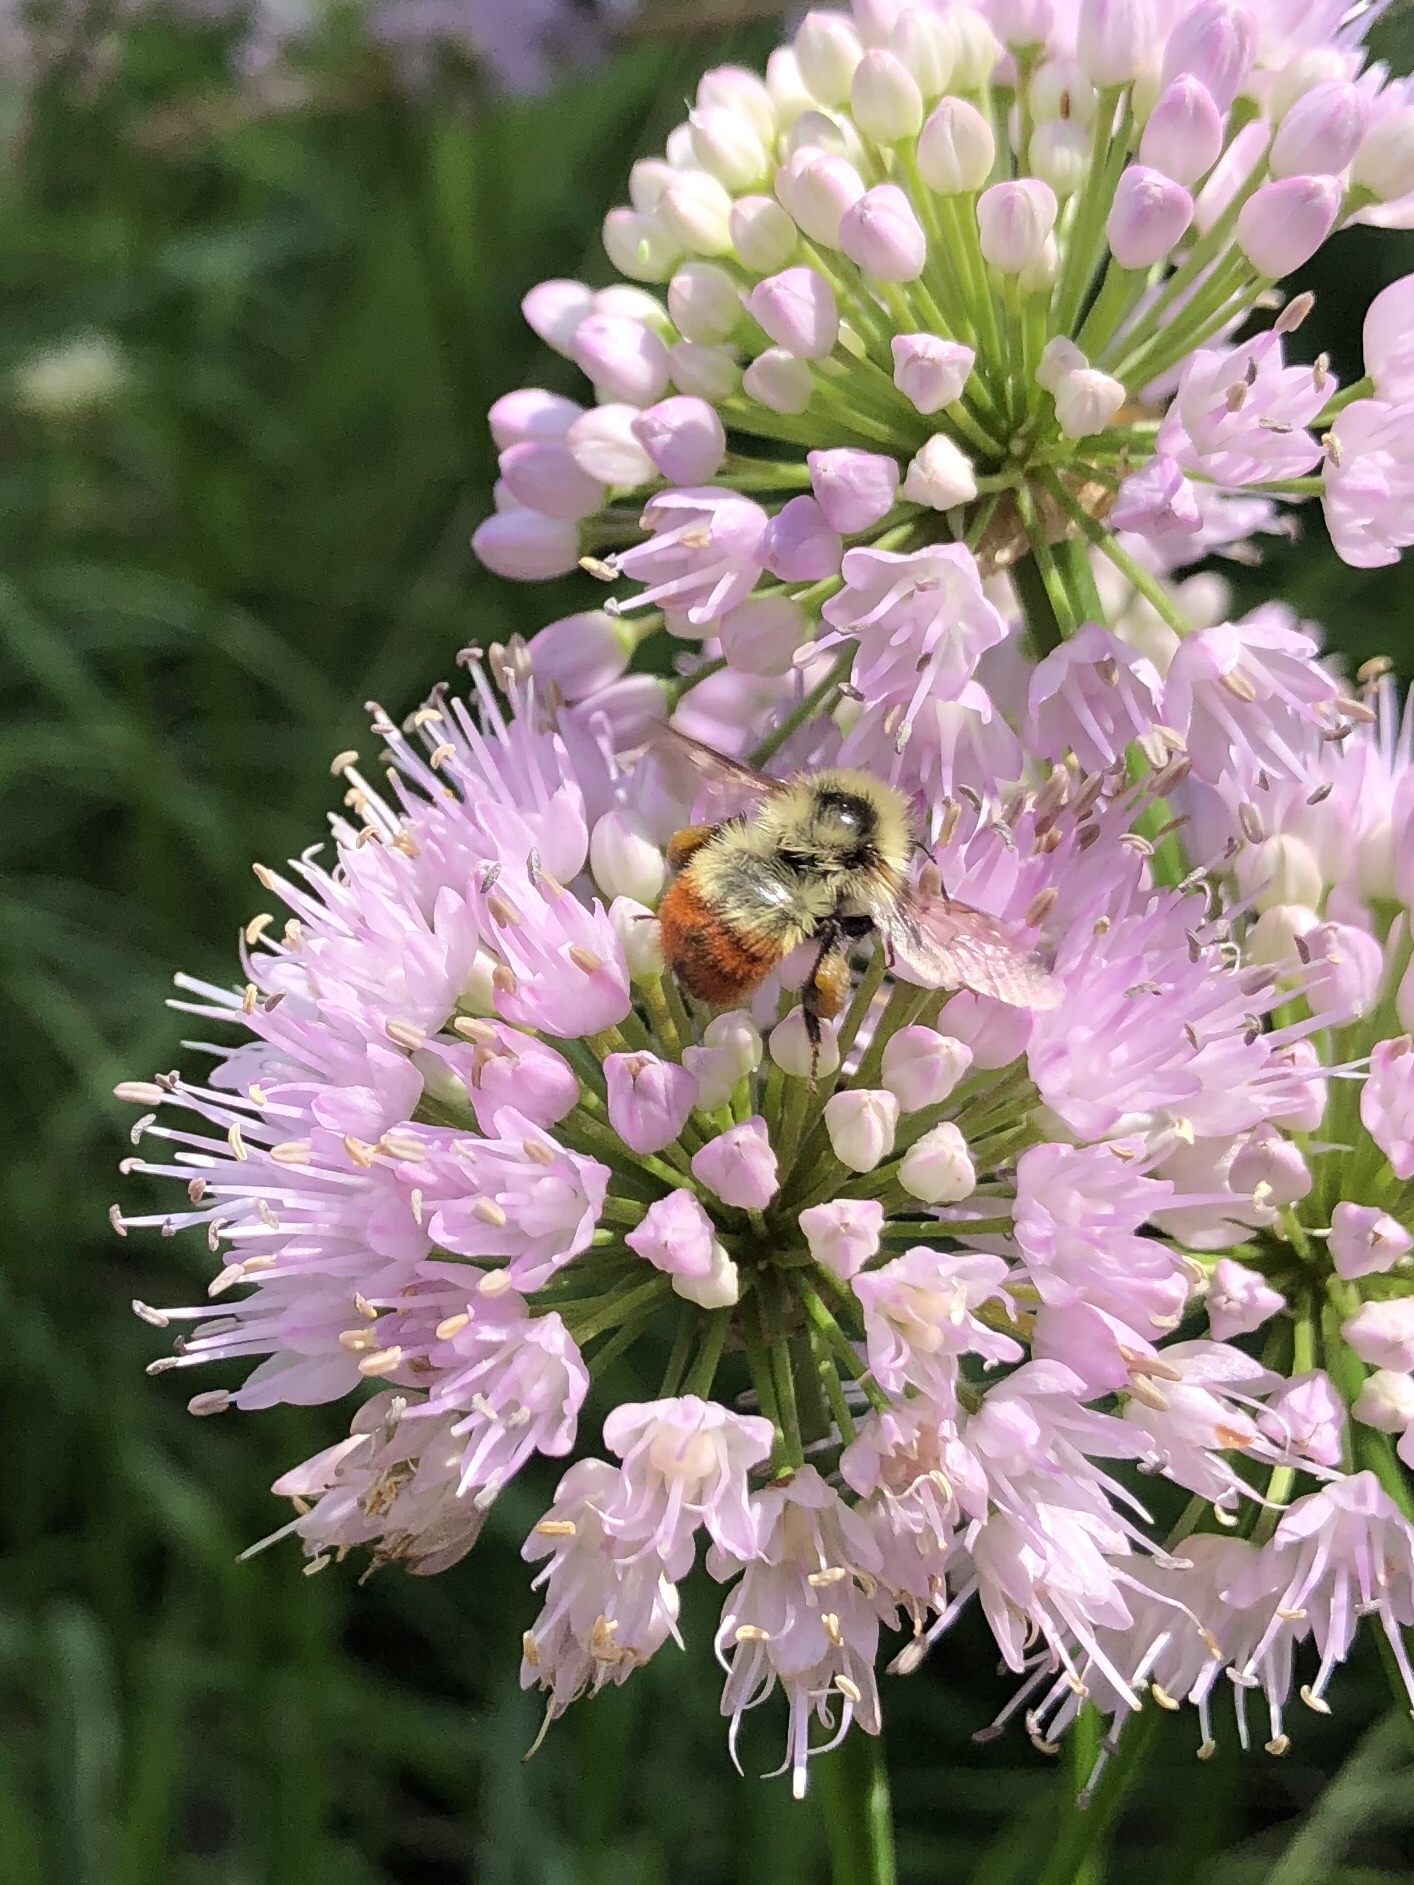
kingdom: Animalia
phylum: Arthropoda
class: Insecta
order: Hymenoptera
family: Apidae
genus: Bombus
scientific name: Bombus rufocinctus
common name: Red-belted bumble bee
